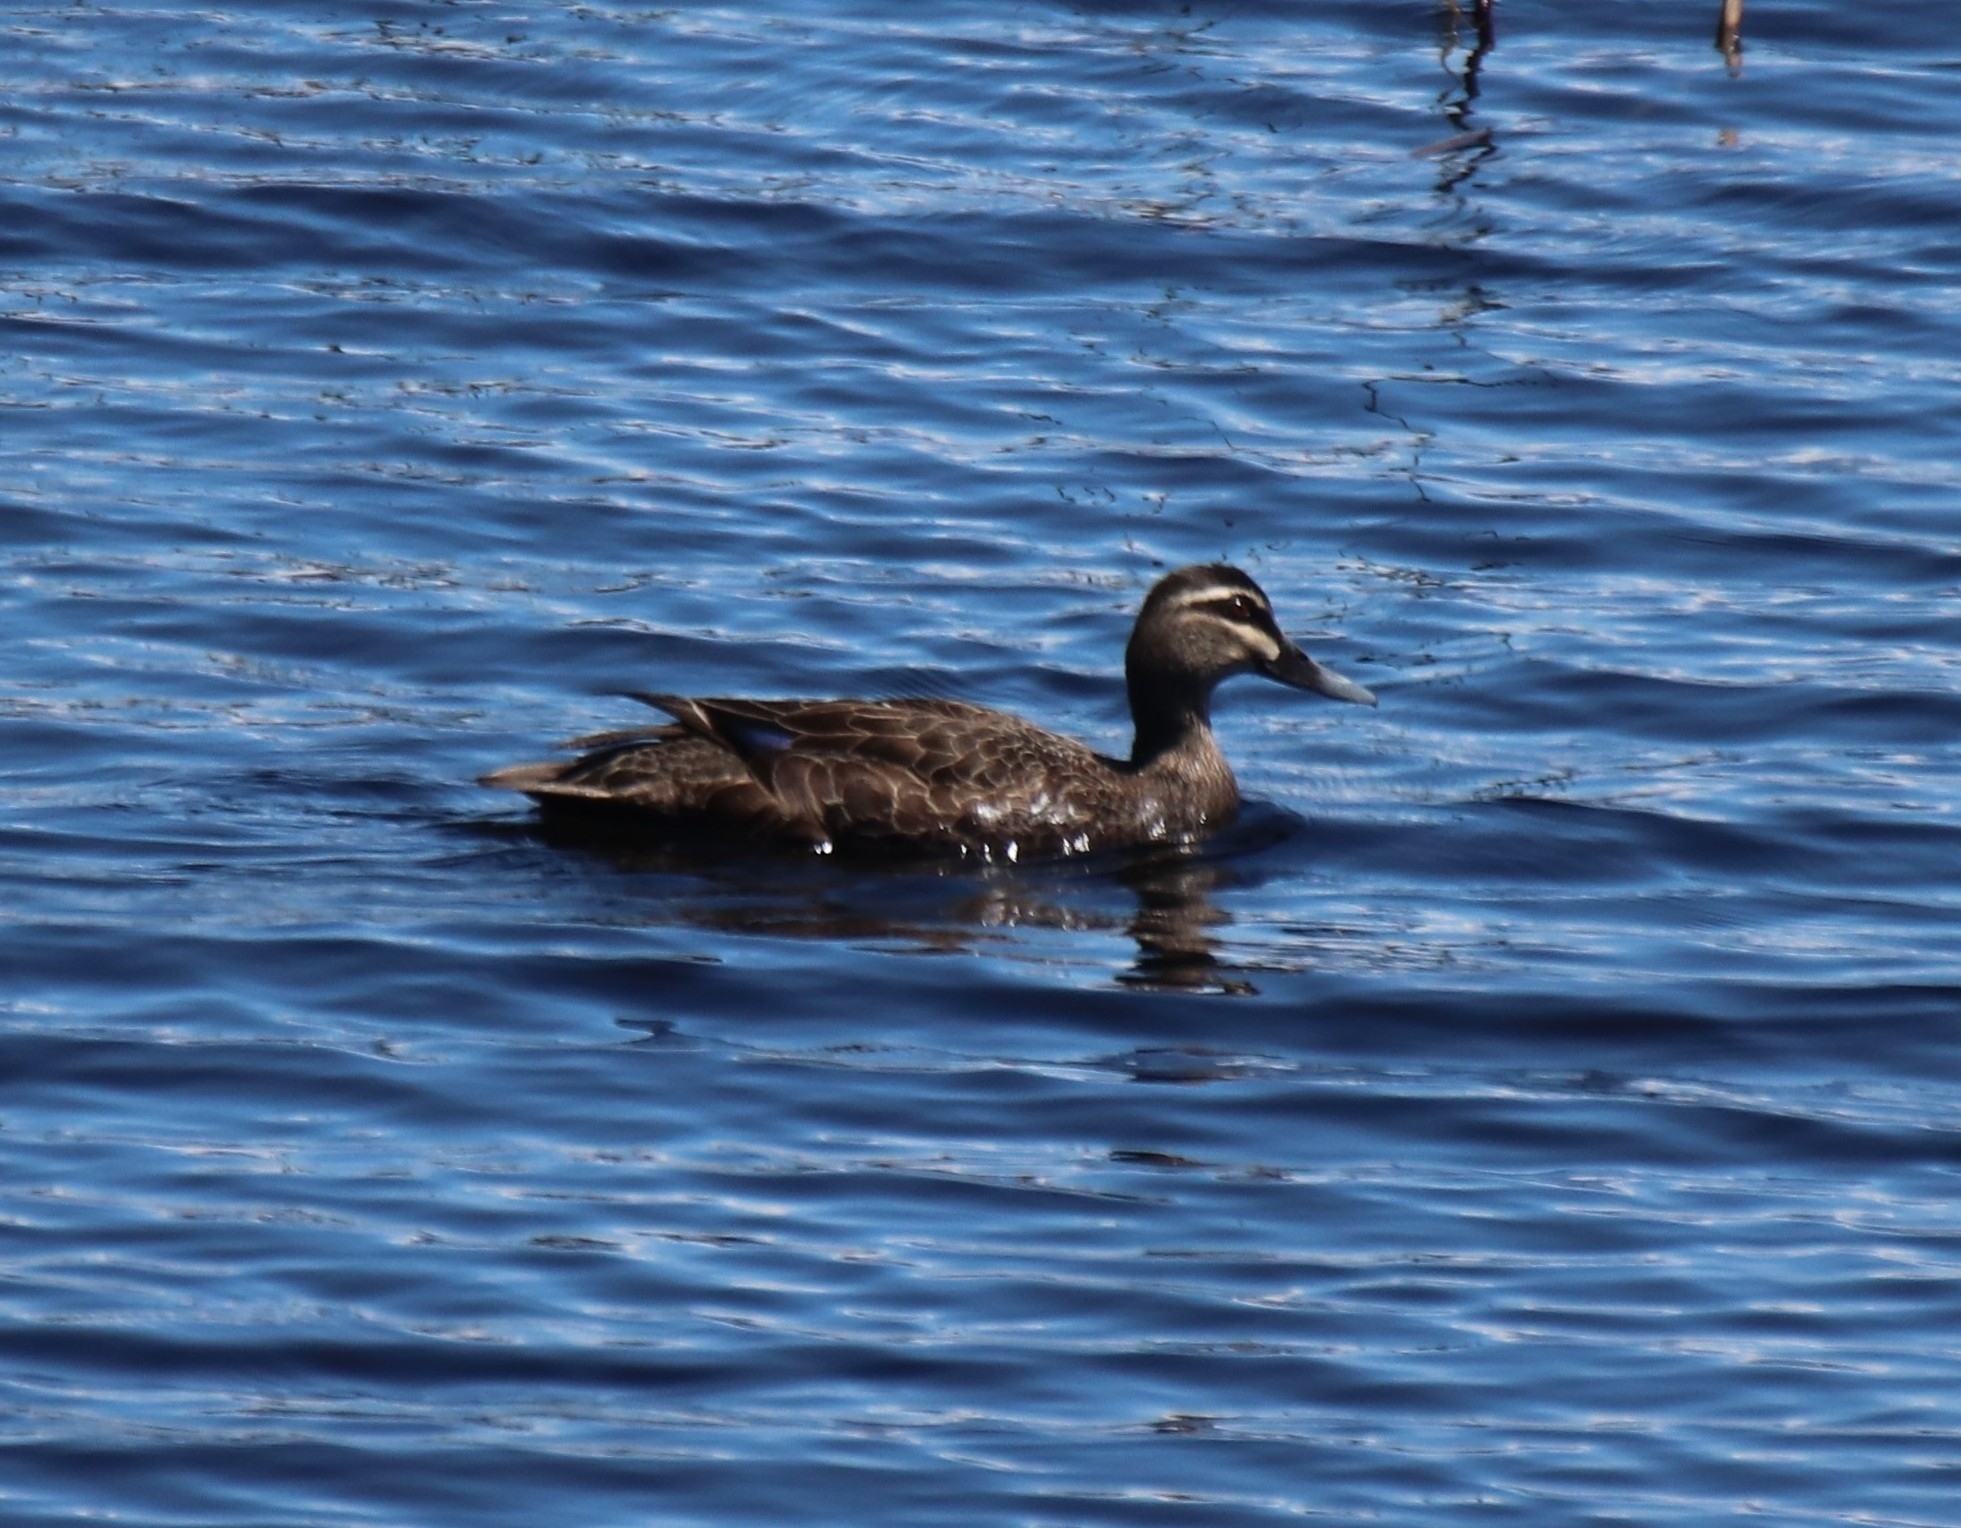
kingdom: Animalia
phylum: Chordata
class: Aves
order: Anseriformes
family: Anatidae
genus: Anas
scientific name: Anas superciliosa
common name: Pacific black duck
